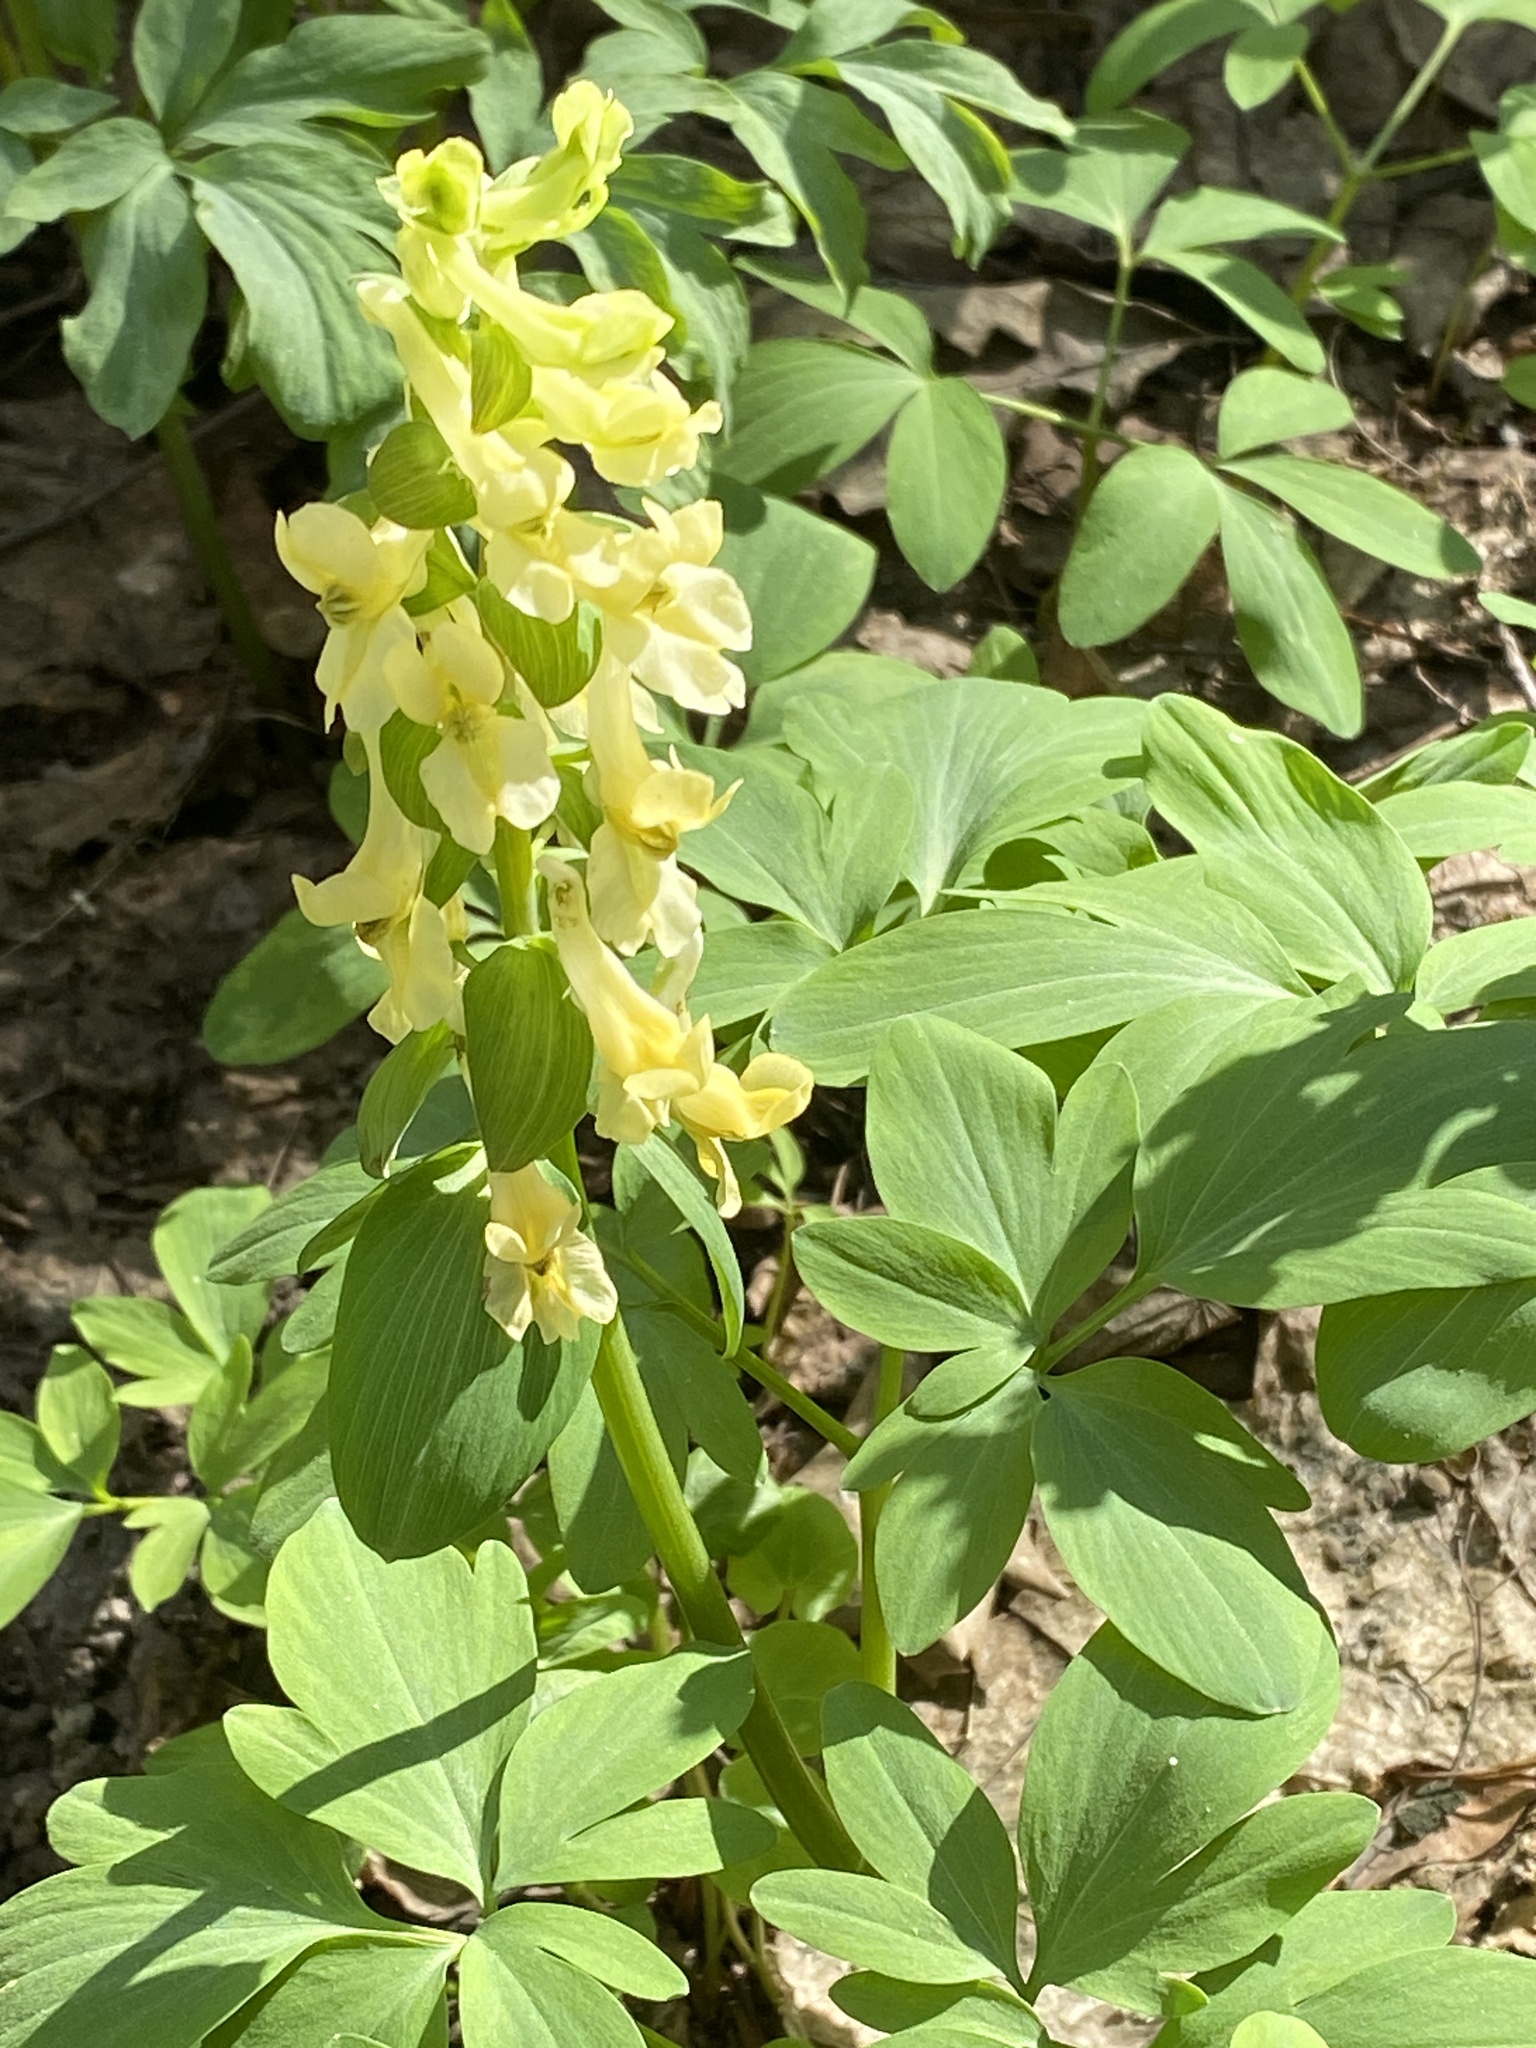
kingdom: Plantae
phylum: Tracheophyta
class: Magnoliopsida
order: Ranunculales
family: Papaveraceae
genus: Corydalis
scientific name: Corydalis cava
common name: Hollowroot
